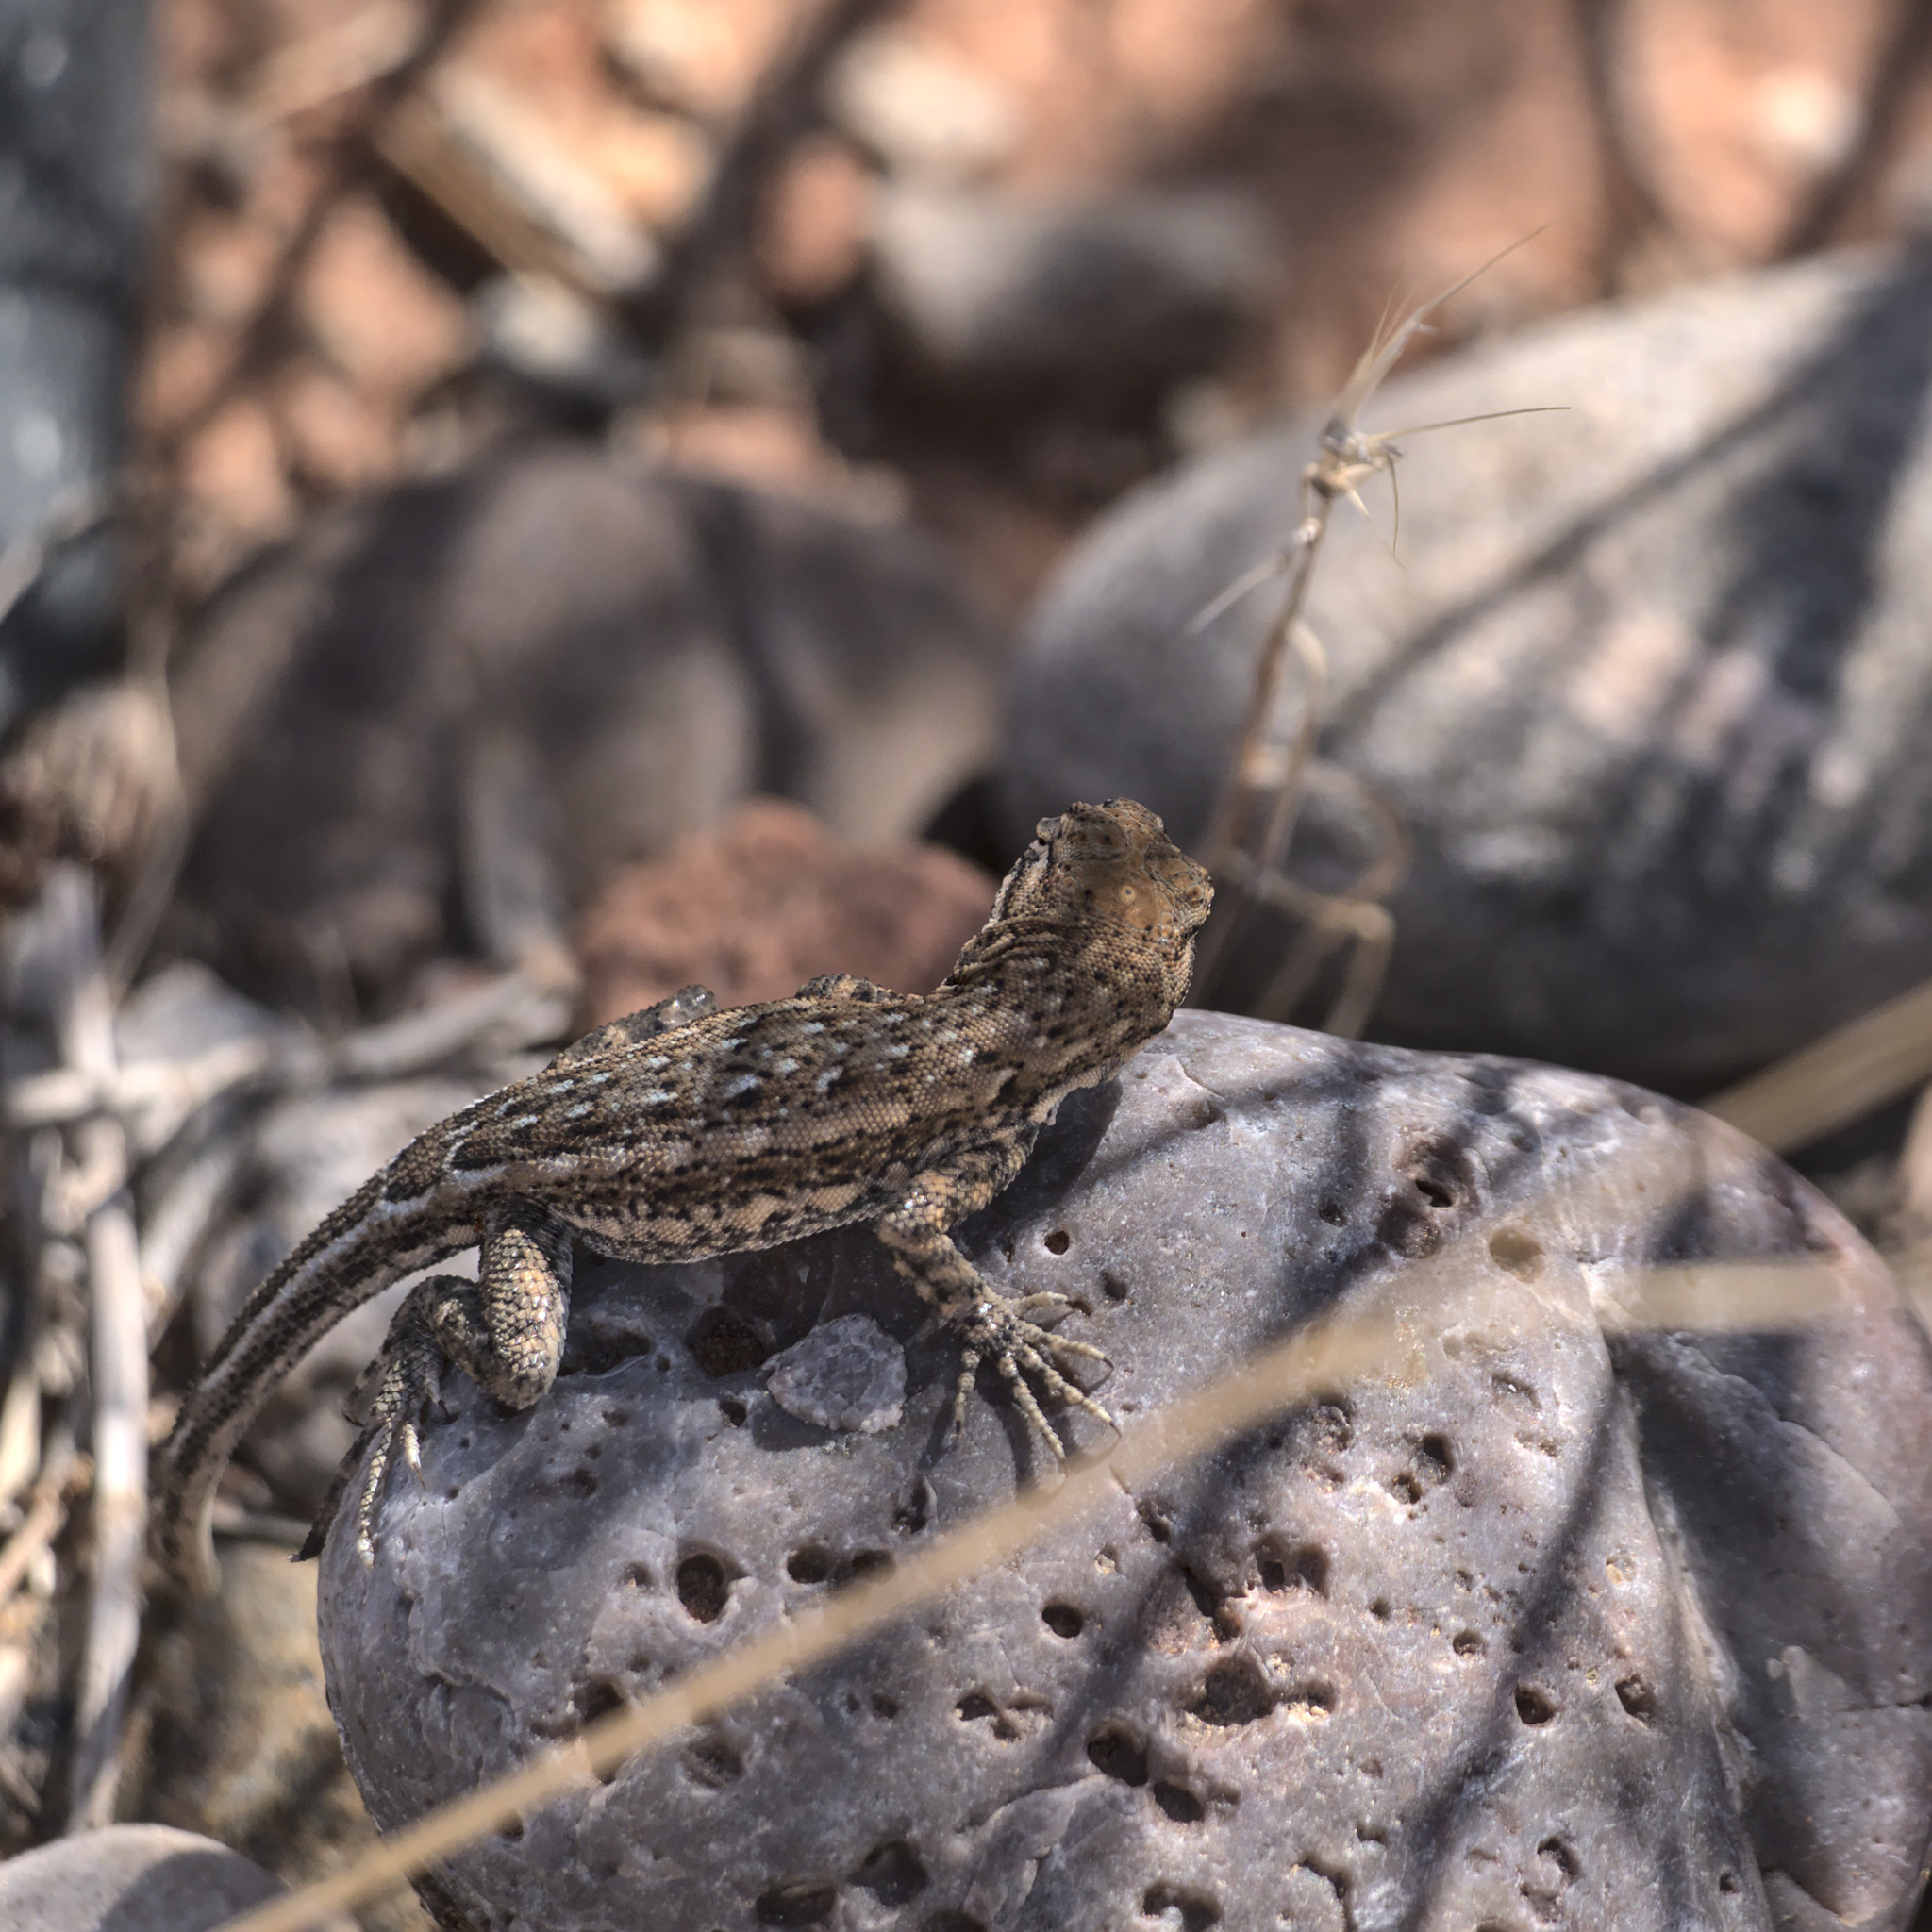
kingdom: Animalia
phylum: Chordata
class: Squamata
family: Phrynosomatidae
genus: Uta
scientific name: Uta stansburiana
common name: Side-blotched lizard
